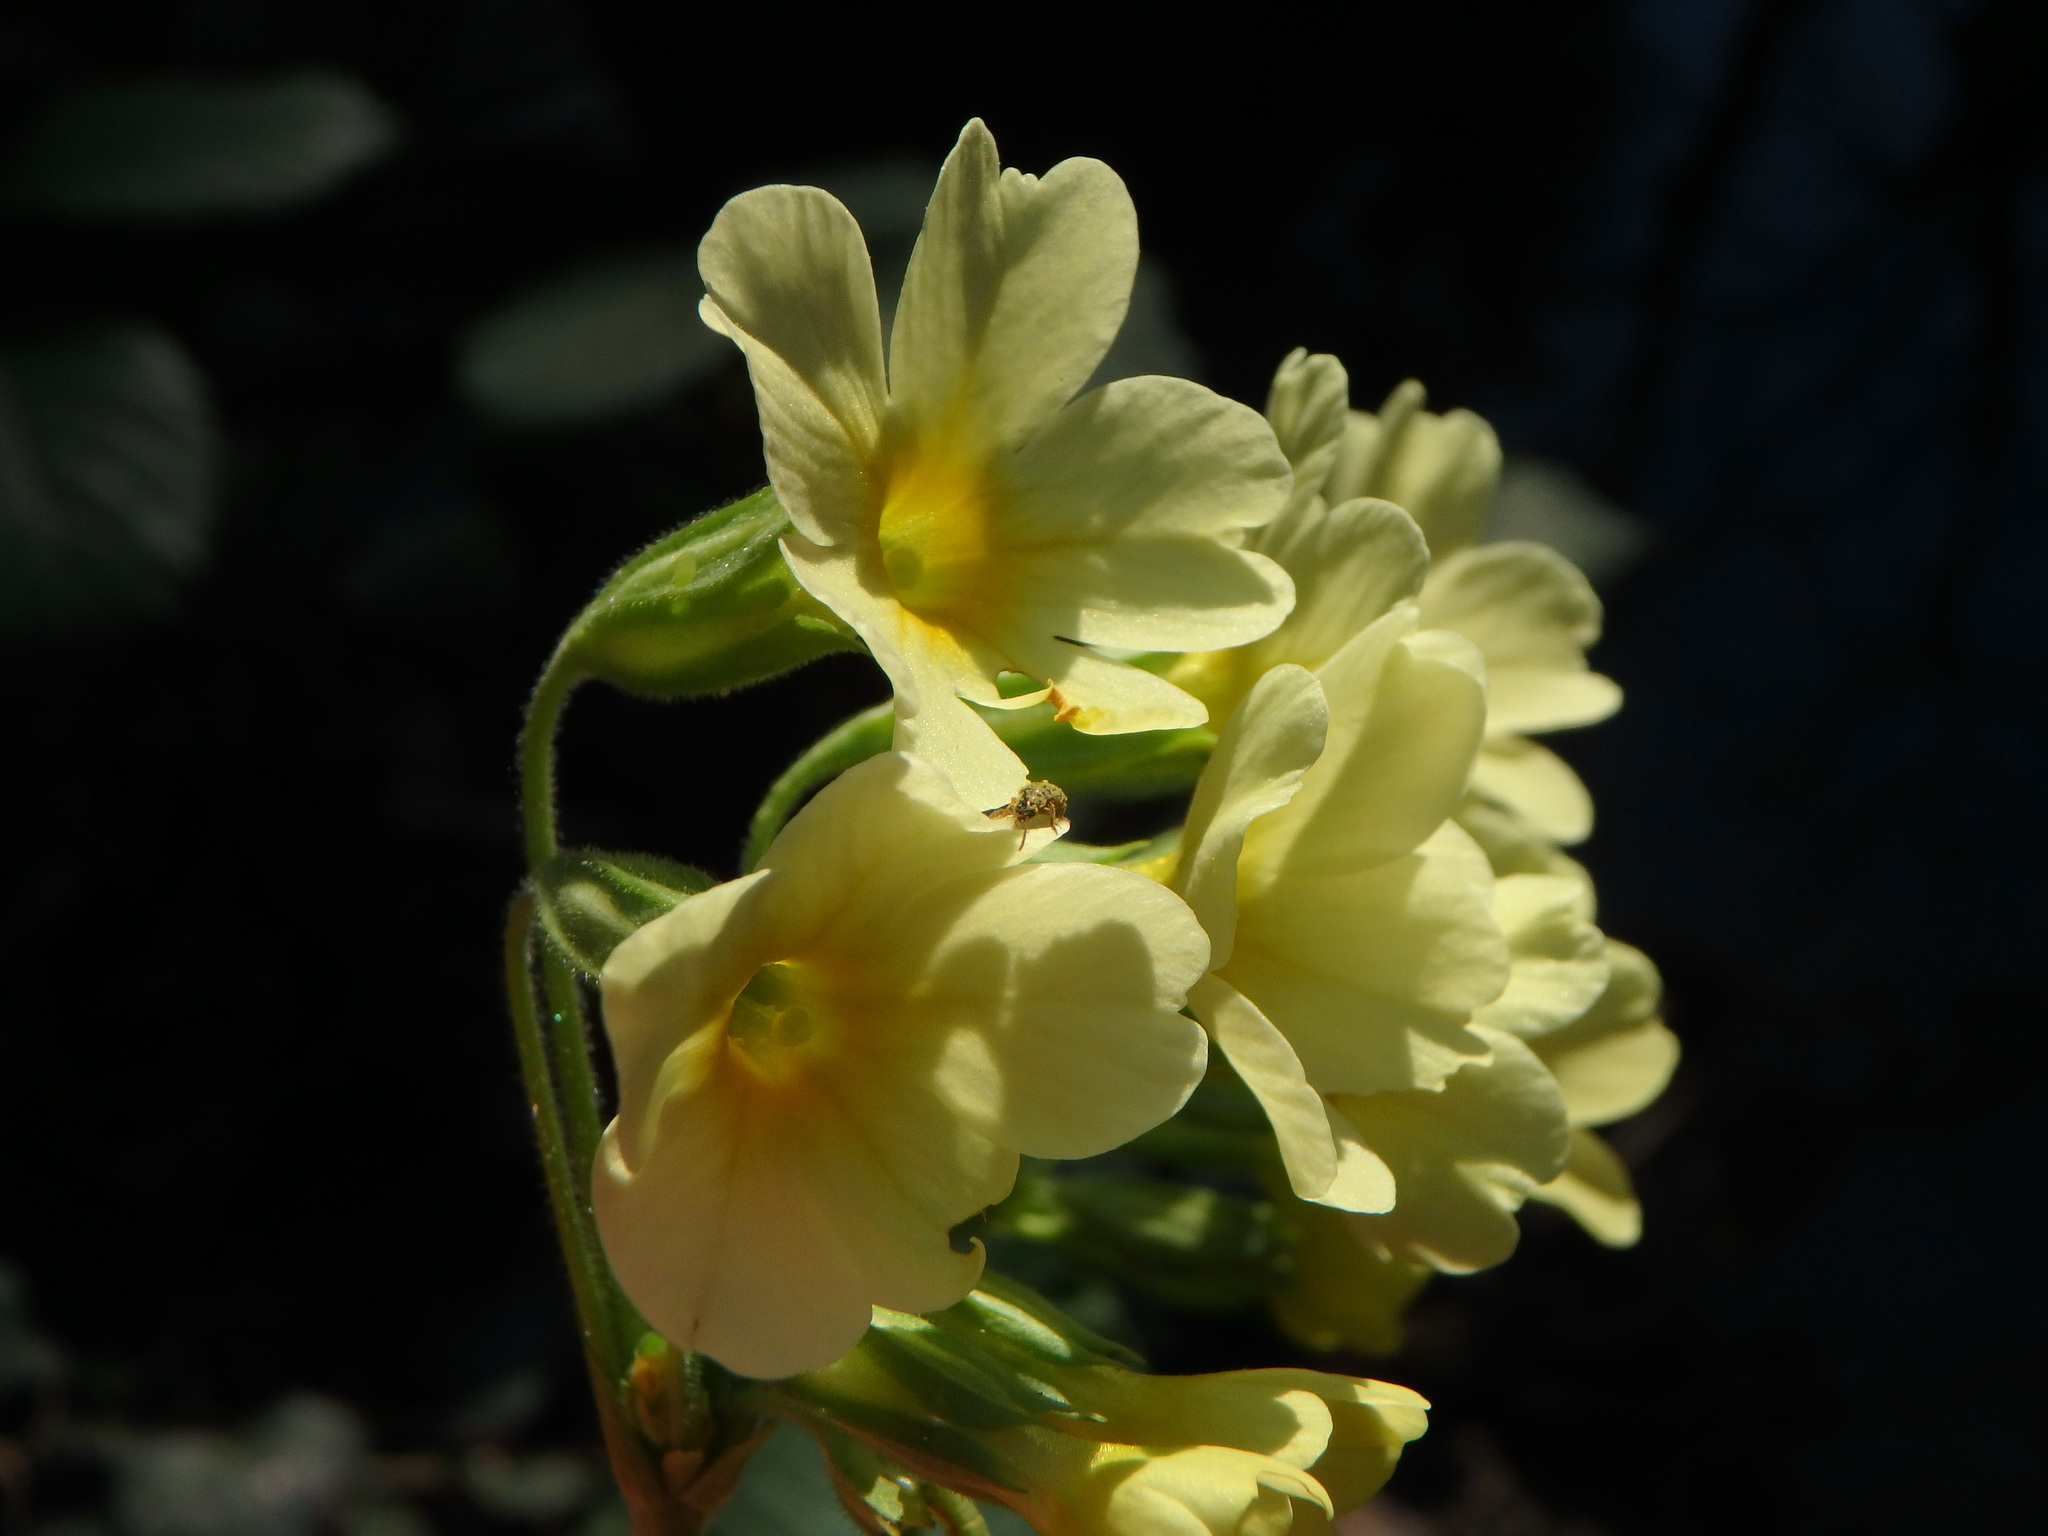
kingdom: Plantae
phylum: Tracheophyta
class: Magnoliopsida
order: Ericales
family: Primulaceae
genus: Primula
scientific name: Primula elatior
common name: Oxlip
